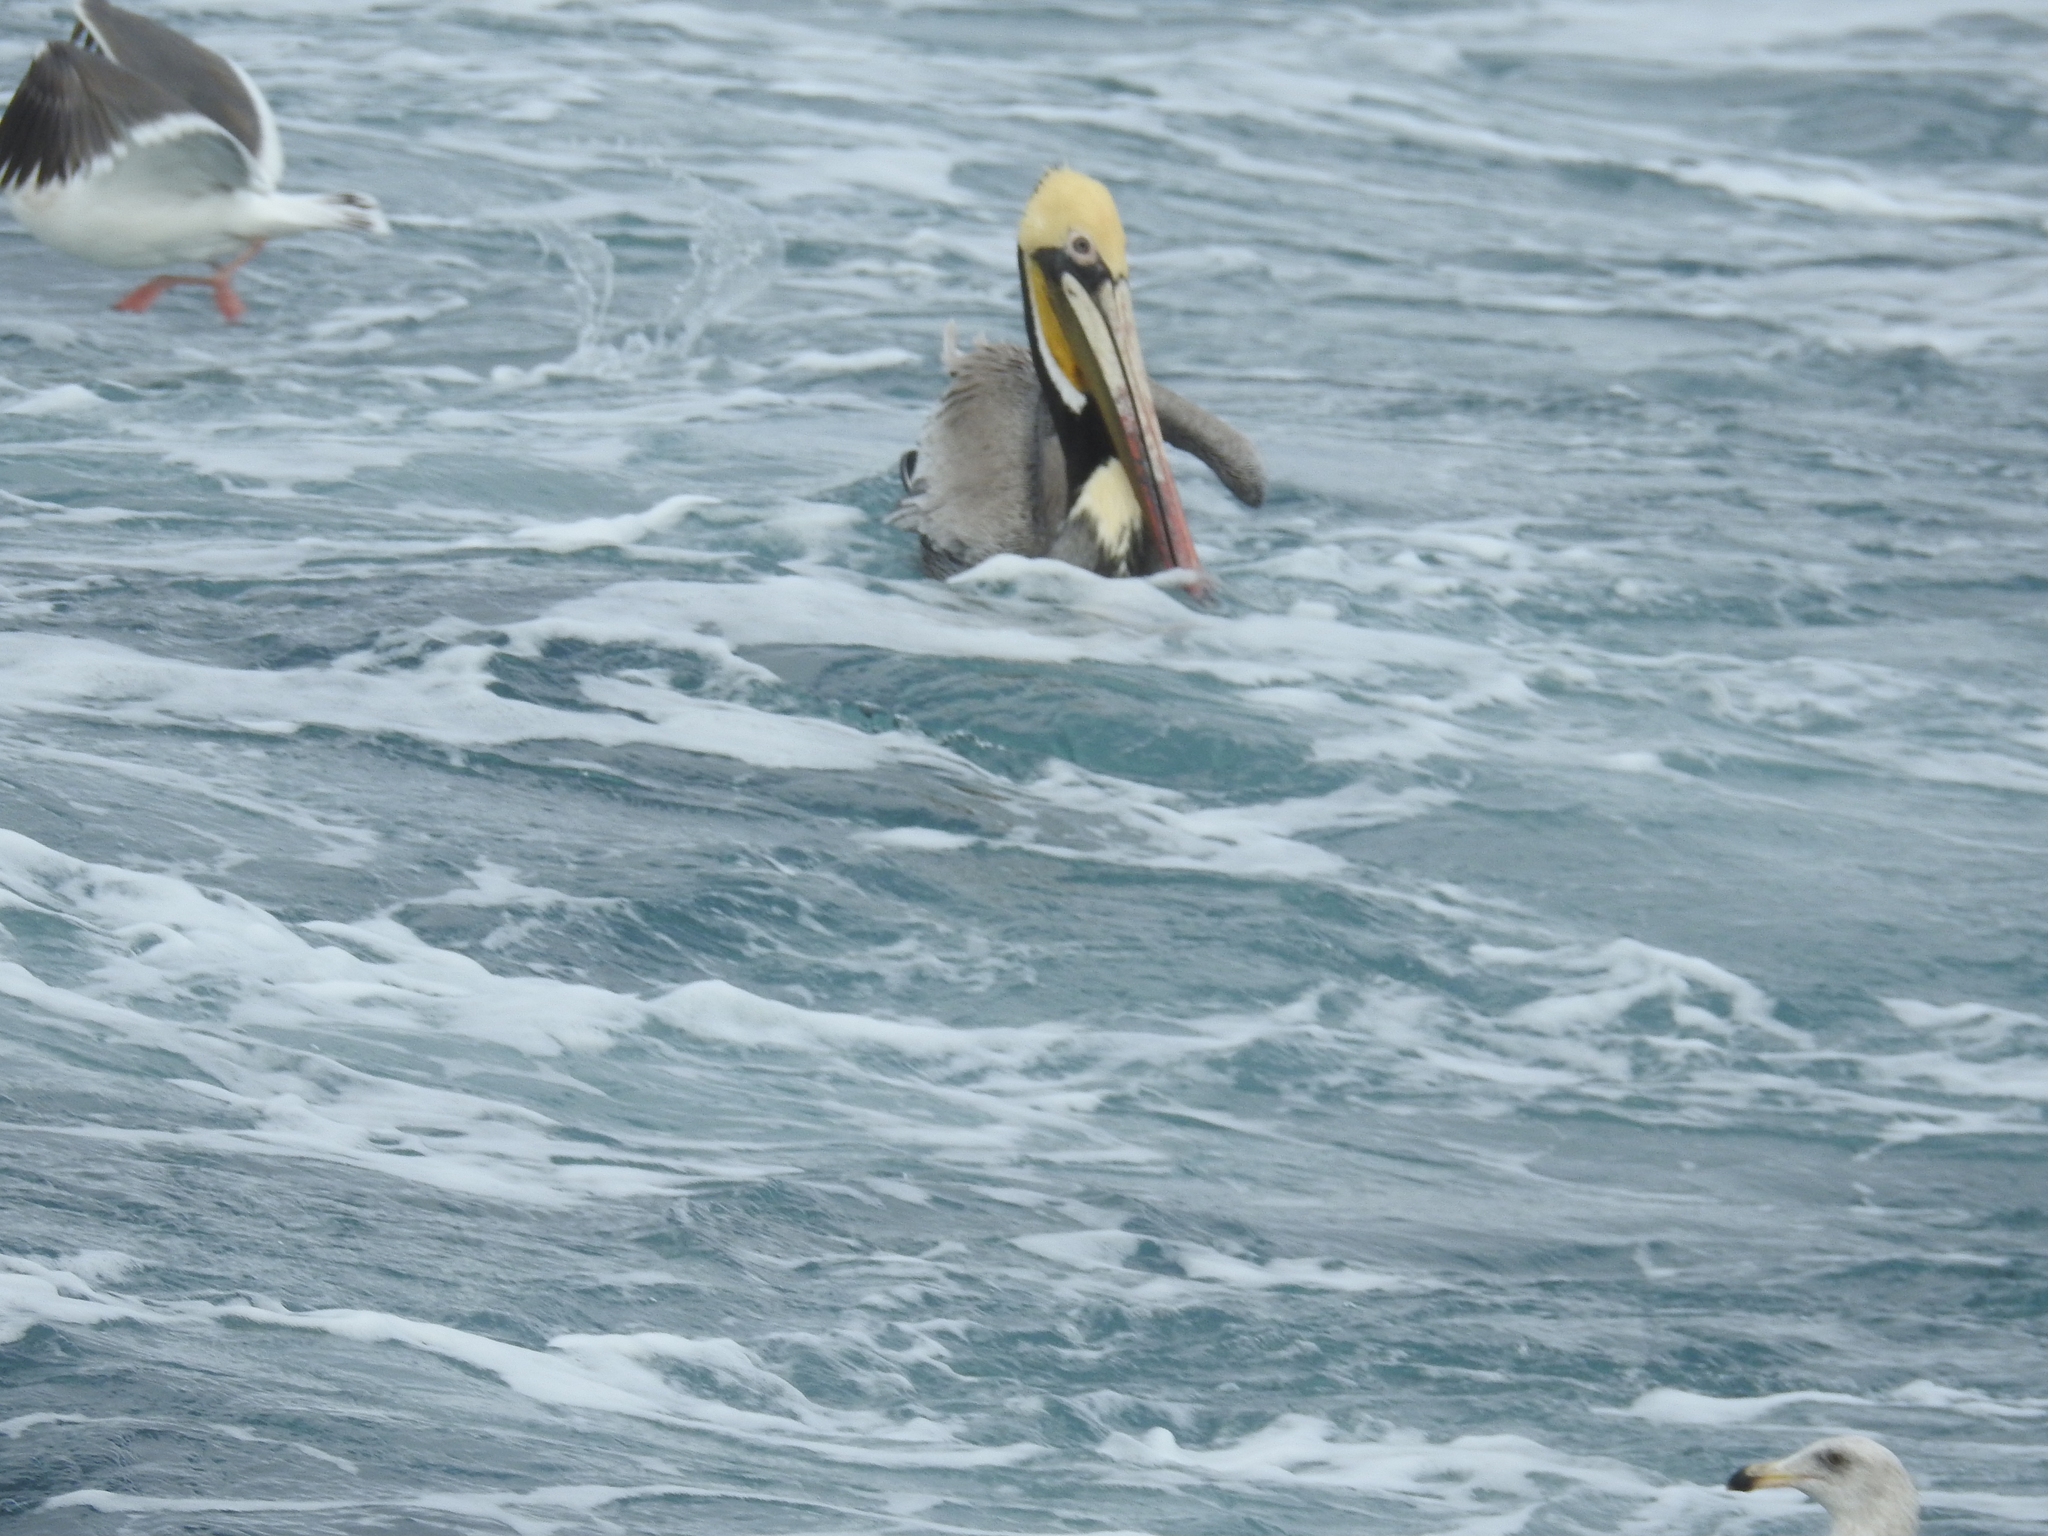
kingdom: Animalia
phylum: Chordata
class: Aves
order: Pelecaniformes
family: Pelecanidae
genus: Pelecanus
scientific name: Pelecanus occidentalis
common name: Brown pelican
